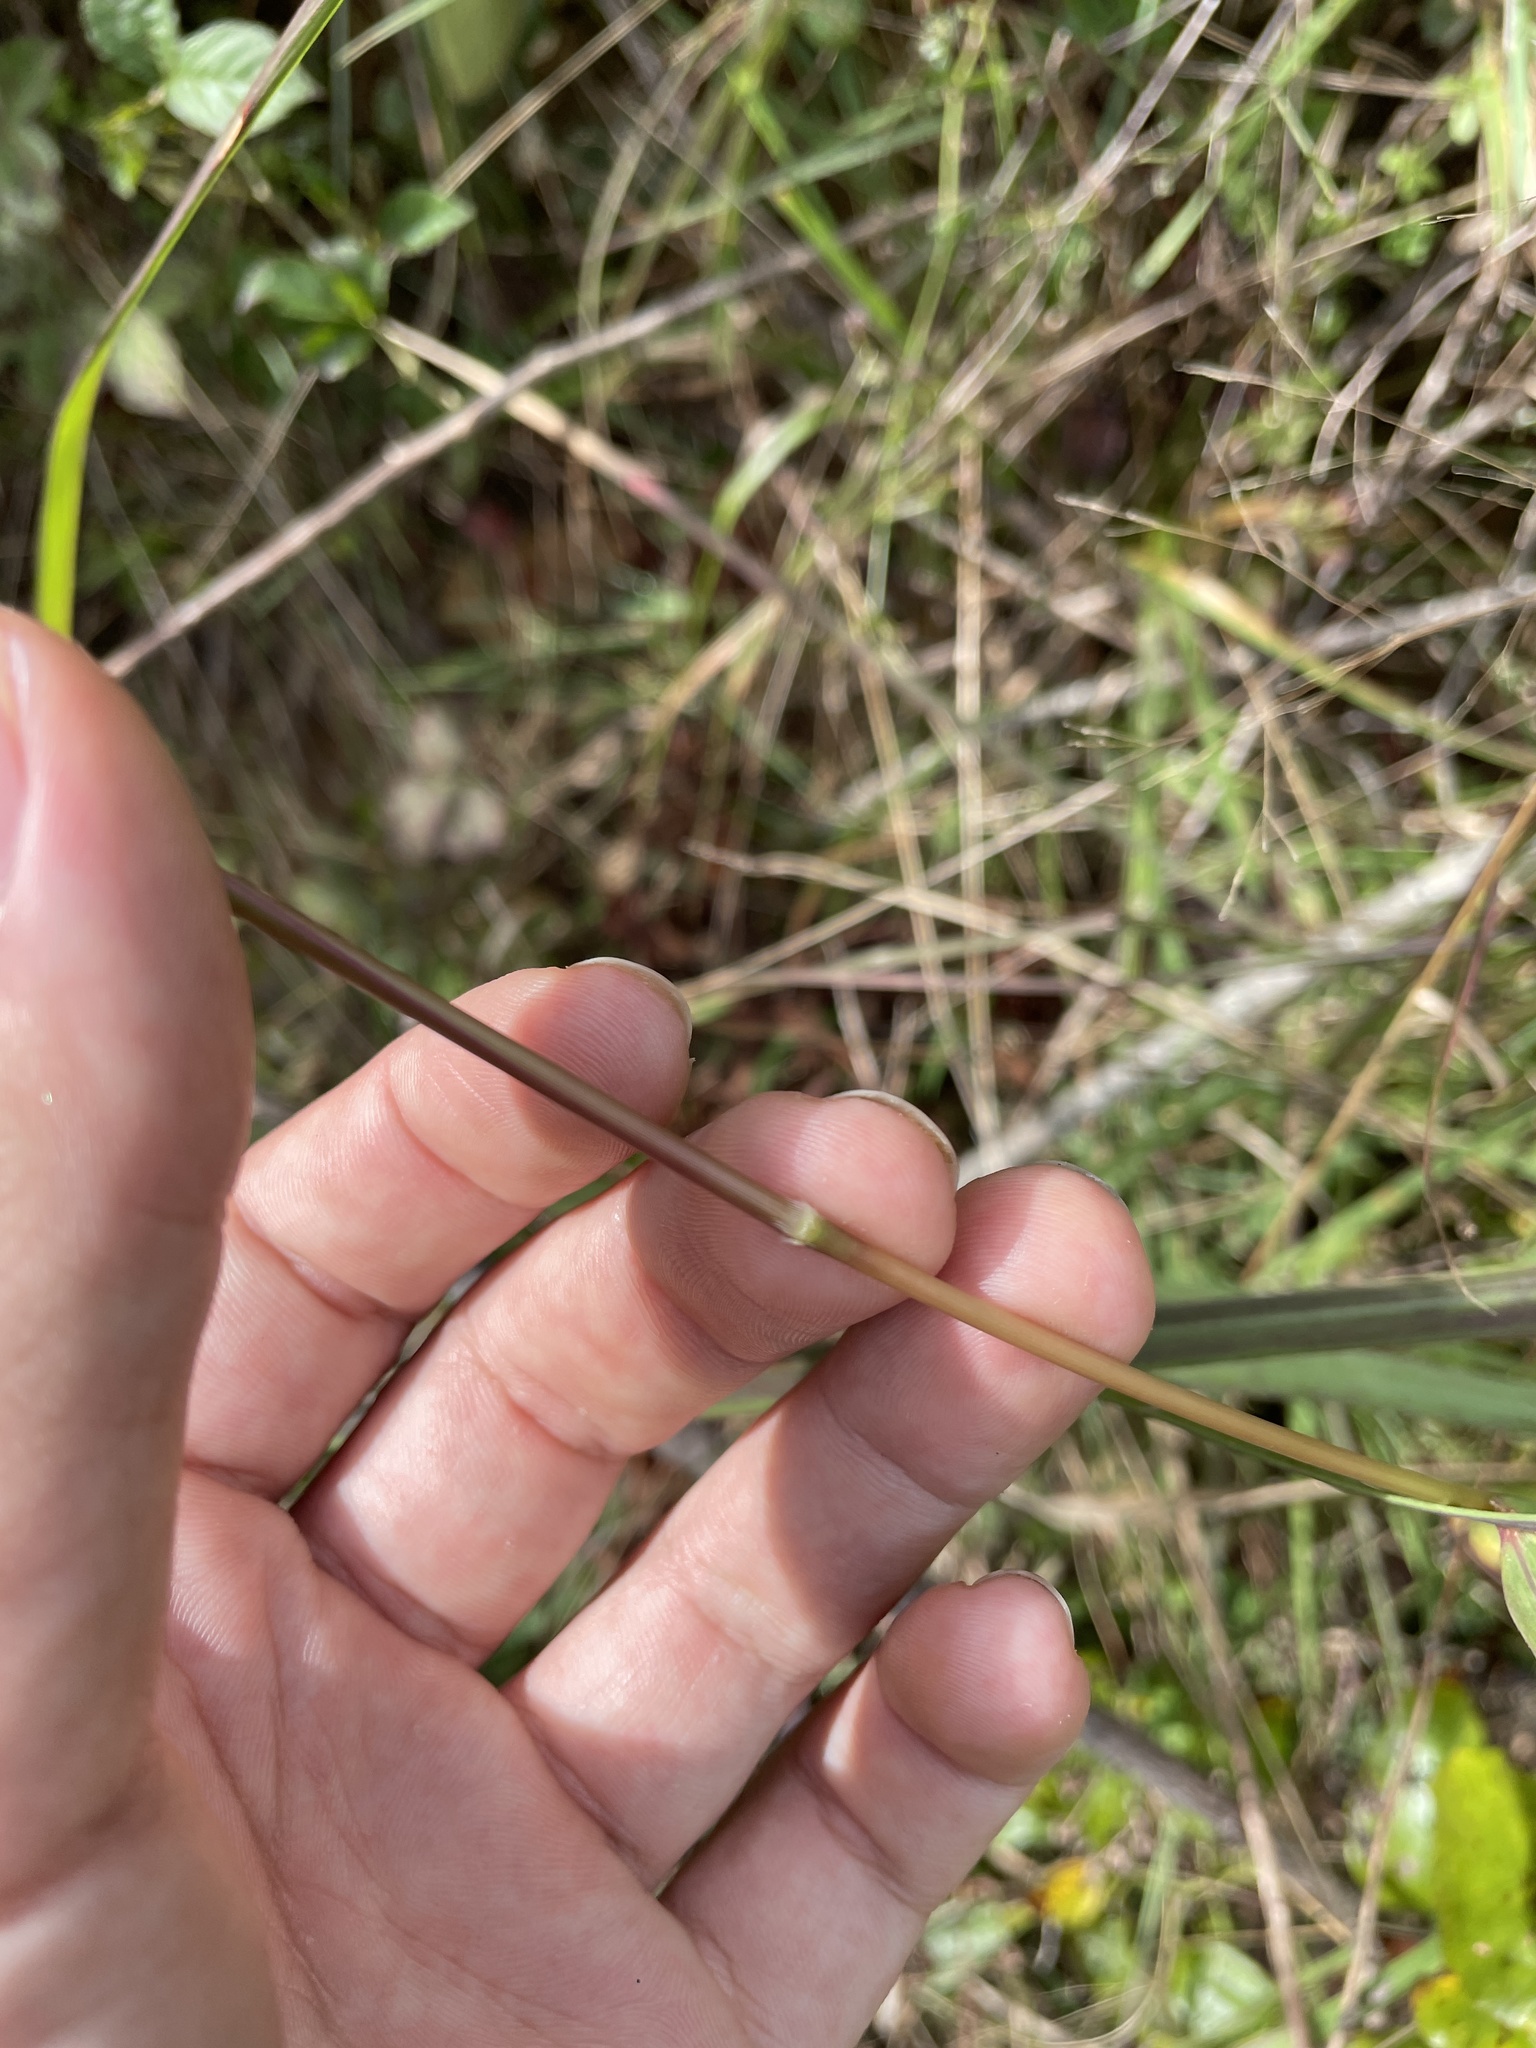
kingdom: Plantae
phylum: Tracheophyta
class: Liliopsida
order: Poales
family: Poaceae
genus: Sorghastrum
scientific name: Sorghastrum nutans
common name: Indian grass
